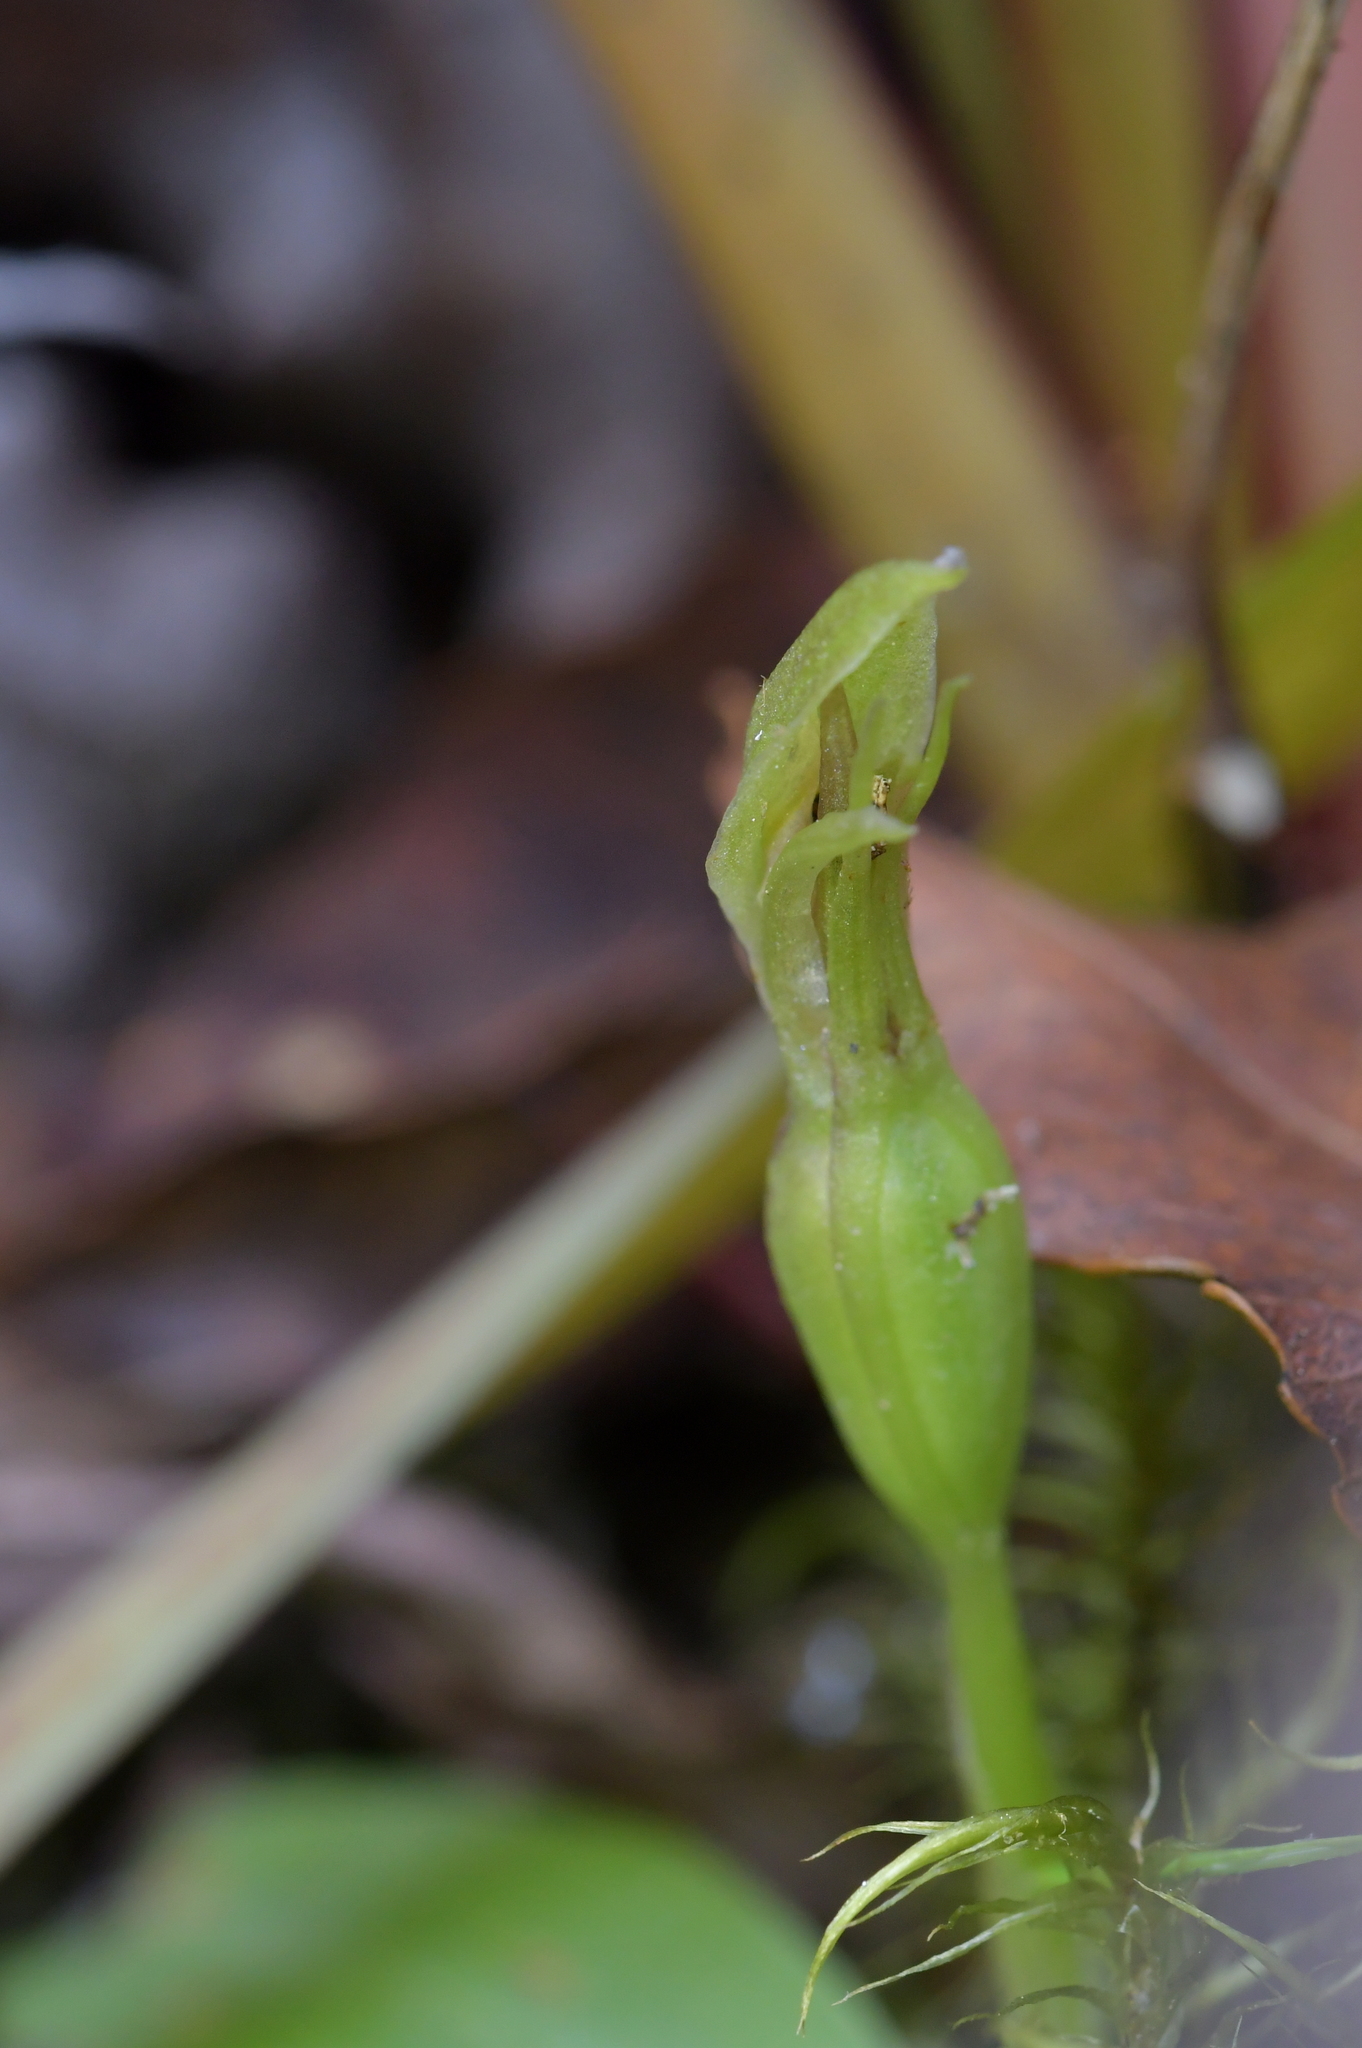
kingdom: Plantae
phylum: Tracheophyta
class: Liliopsida
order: Asparagales
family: Orchidaceae
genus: Chiloglottis
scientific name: Chiloglottis cornuta
